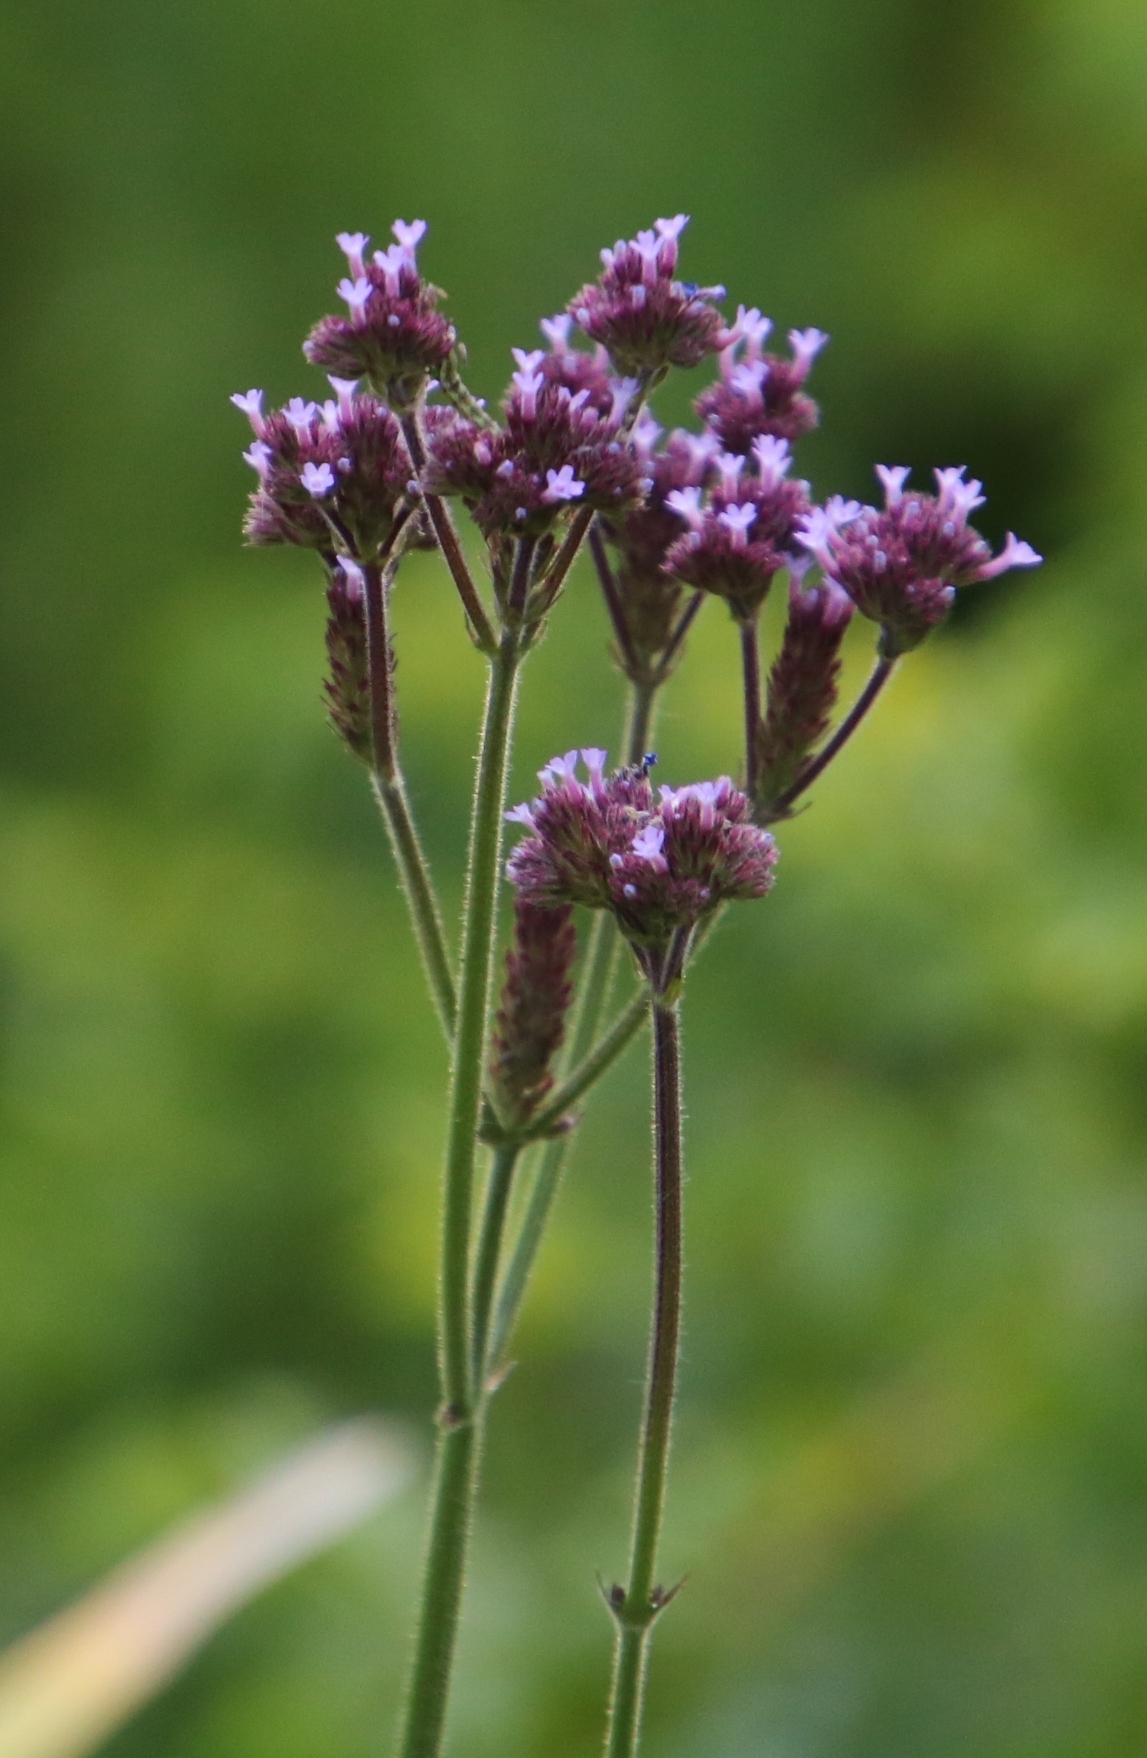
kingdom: Plantae
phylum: Tracheophyta
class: Magnoliopsida
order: Lamiales
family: Verbenaceae
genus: Verbena
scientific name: Verbena bonariensis
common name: Purpletop vervain
